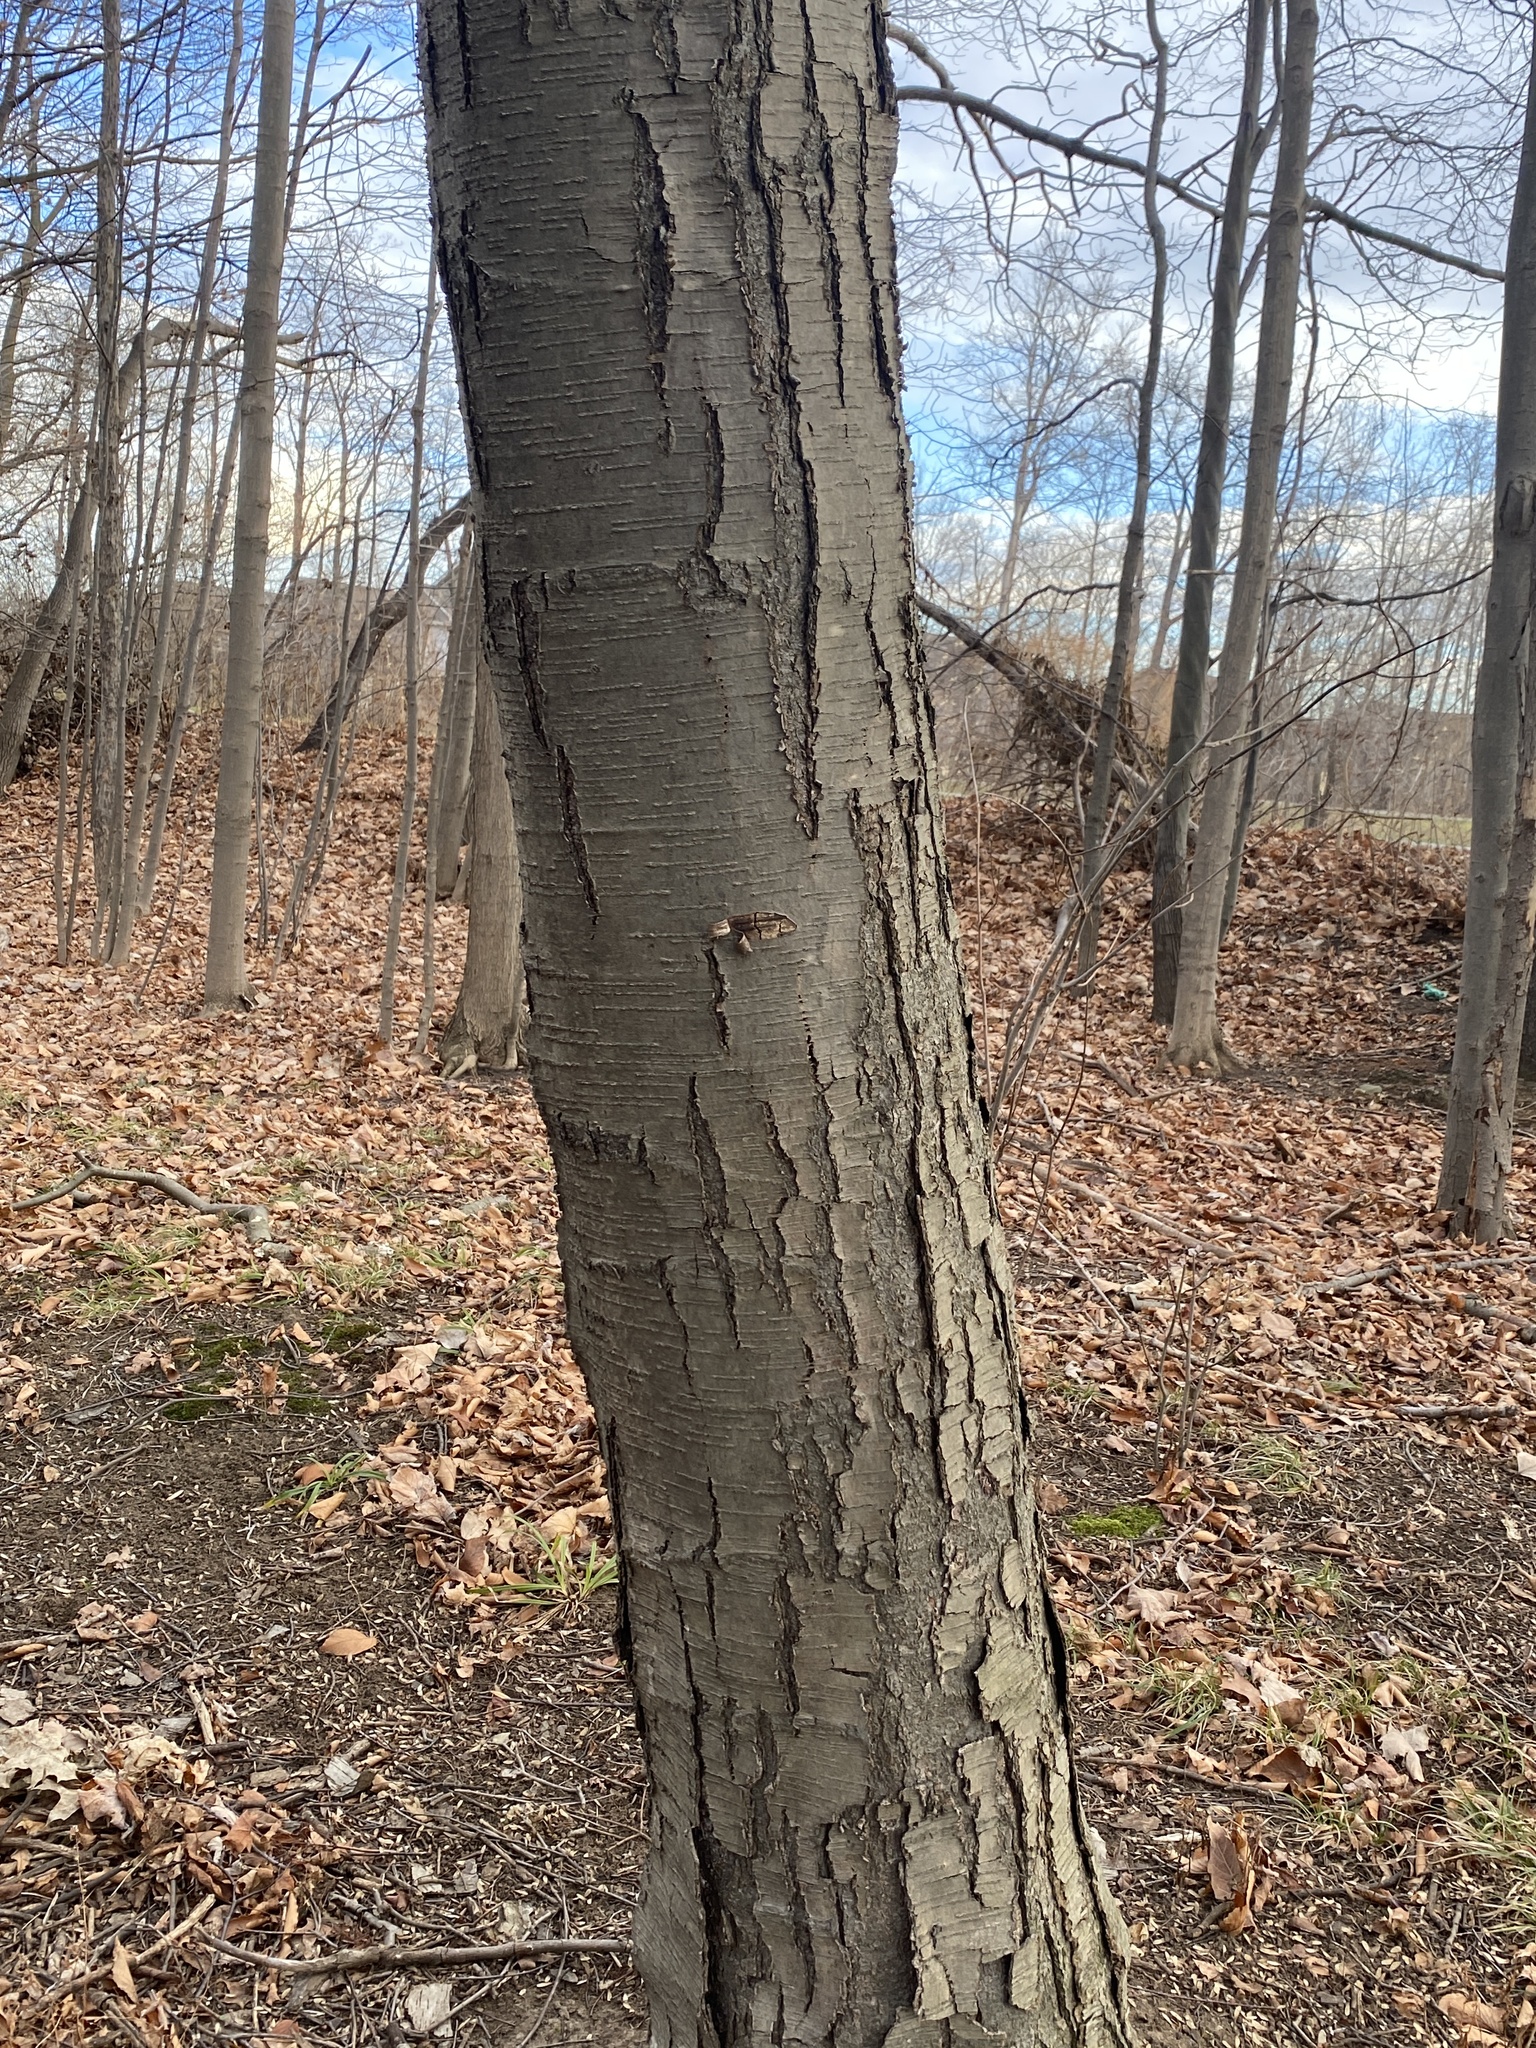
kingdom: Plantae
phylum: Tracheophyta
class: Magnoliopsida
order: Fagales
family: Betulaceae
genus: Betula
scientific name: Betula lenta
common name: Black birch
